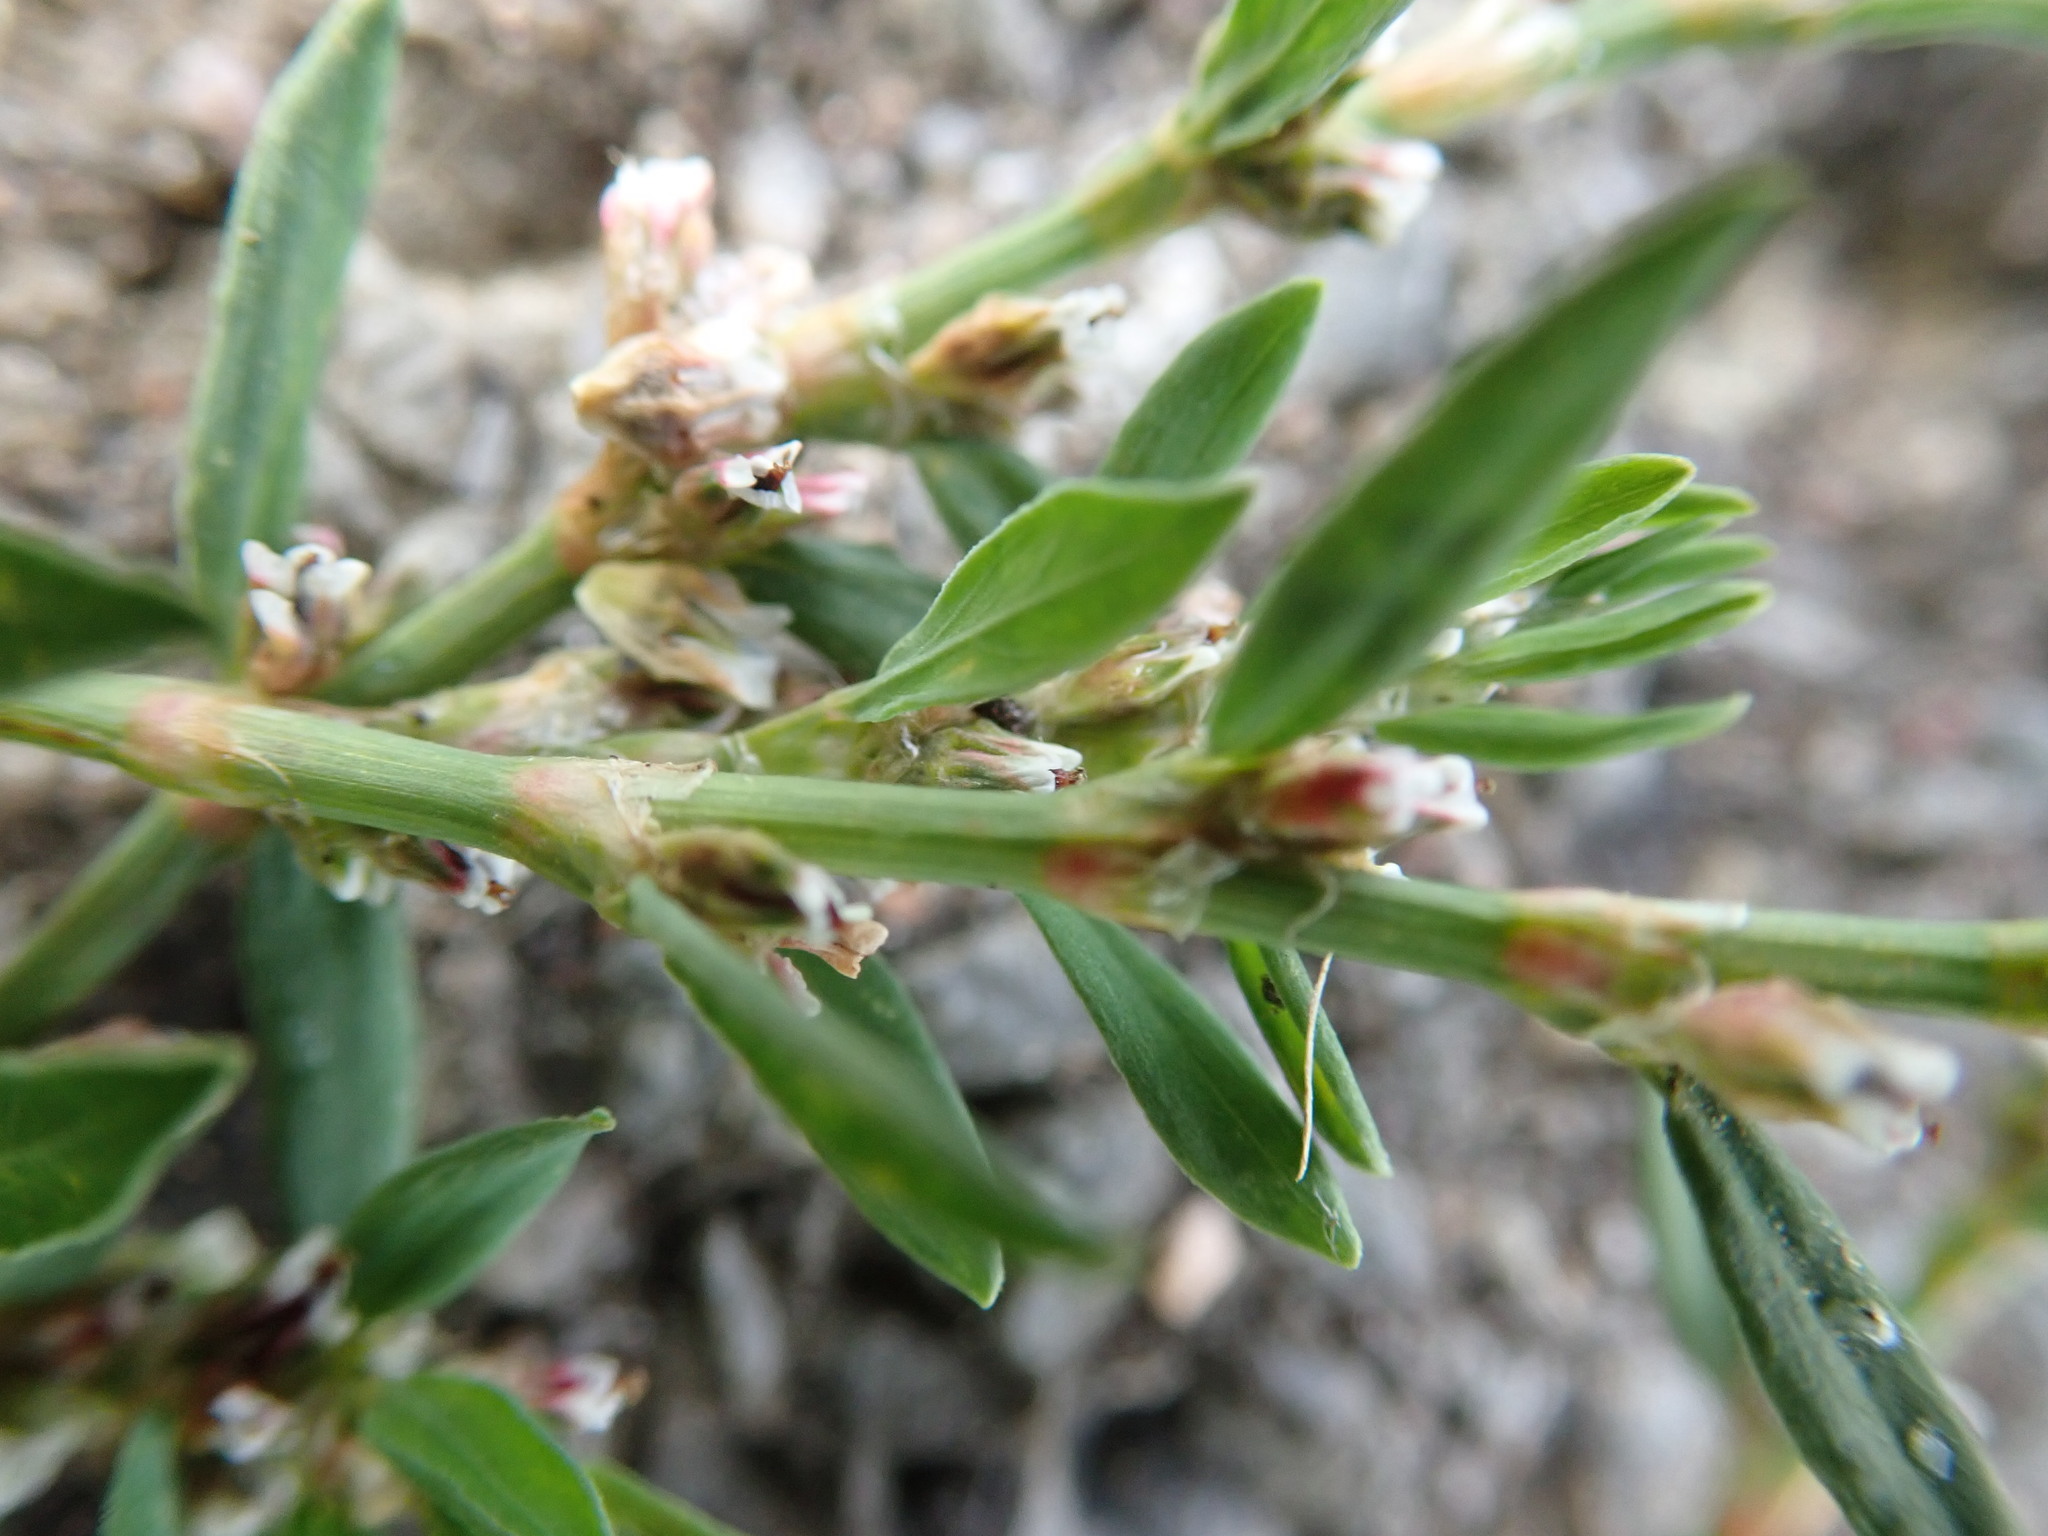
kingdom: Plantae
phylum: Tracheophyta
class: Magnoliopsida
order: Caryophyllales
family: Polygonaceae
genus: Polygonum
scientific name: Polygonum aviculare
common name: Prostrate knotweed
